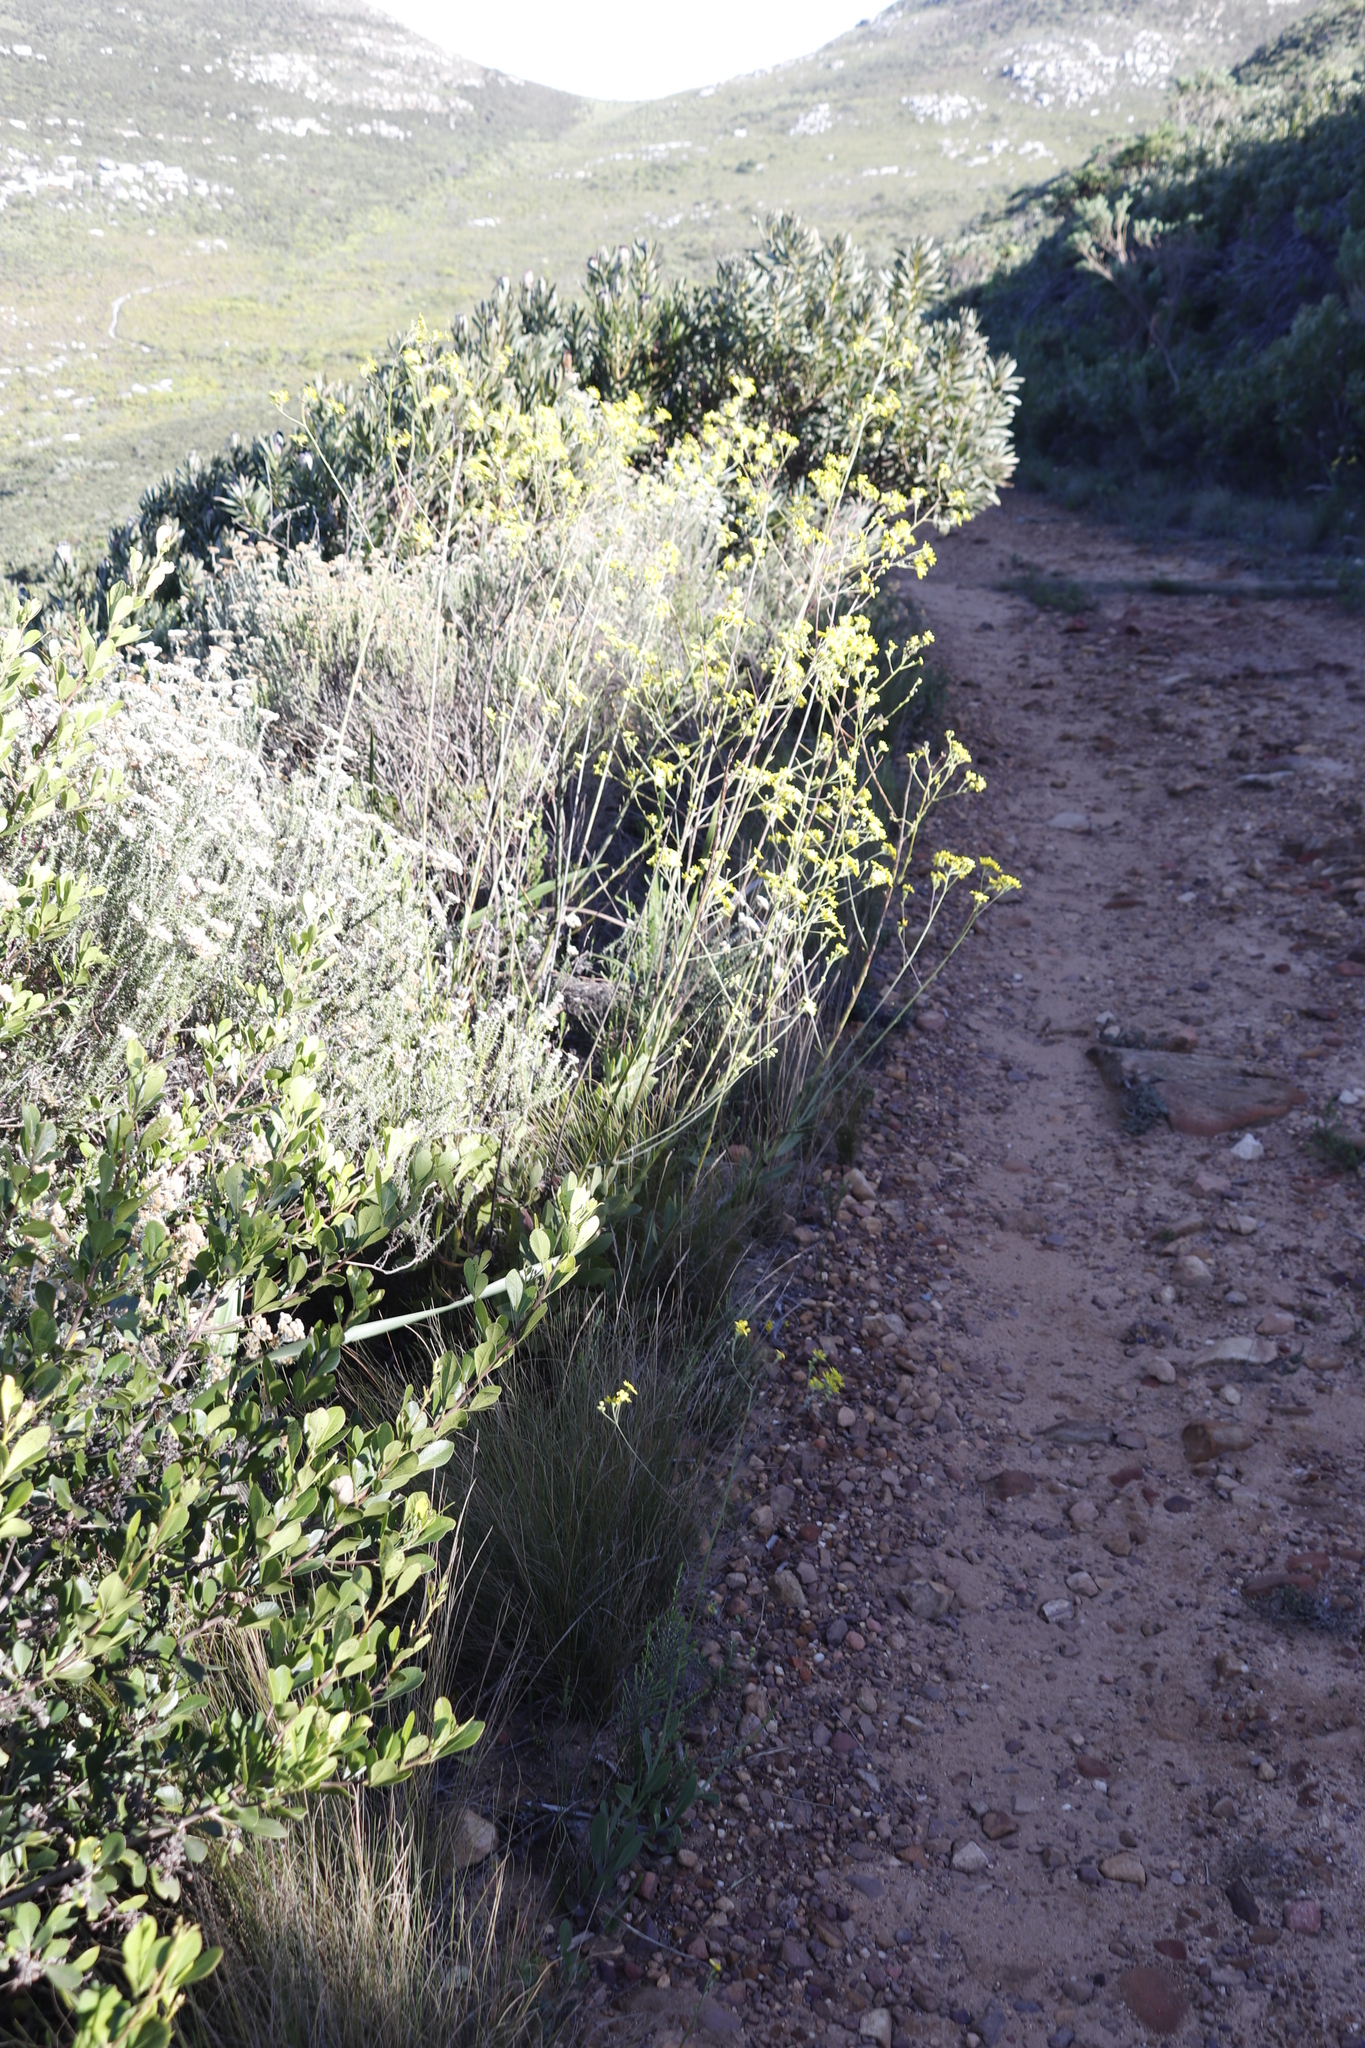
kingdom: Plantae
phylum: Tracheophyta
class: Magnoliopsida
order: Asterales
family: Asteraceae
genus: Othonna
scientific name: Othonna quinquedentata
